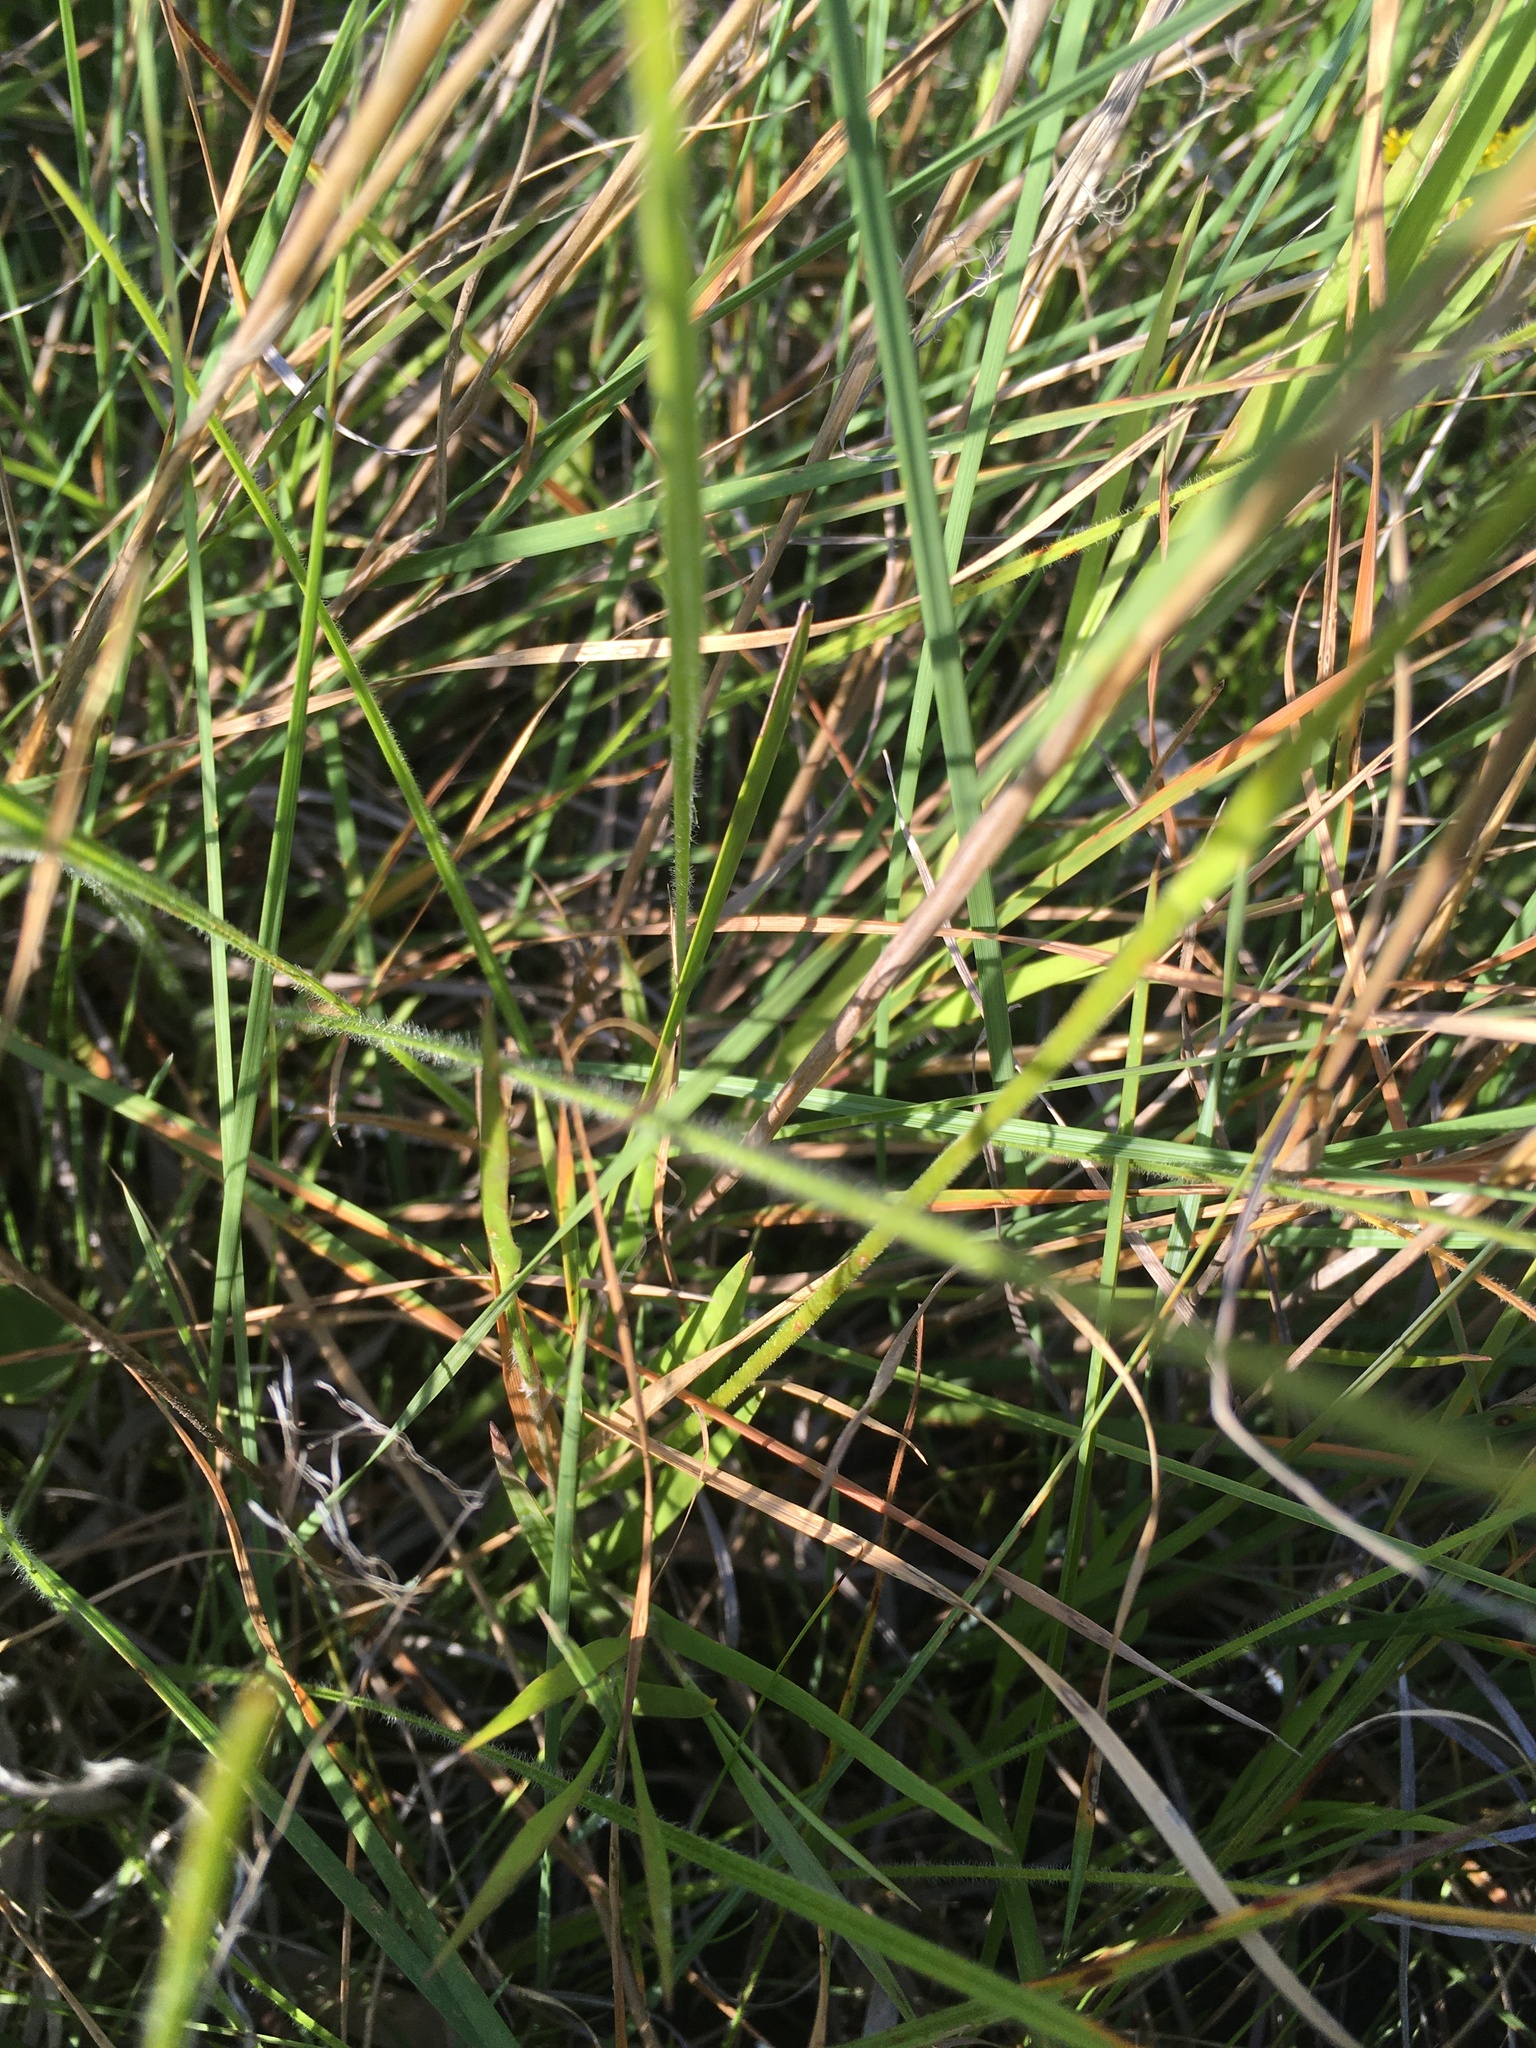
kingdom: Plantae
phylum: Tracheophyta
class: Liliopsida
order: Alismatales
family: Tofieldiaceae
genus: Triantha
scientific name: Triantha racemosa
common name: Coastal false asphodel
